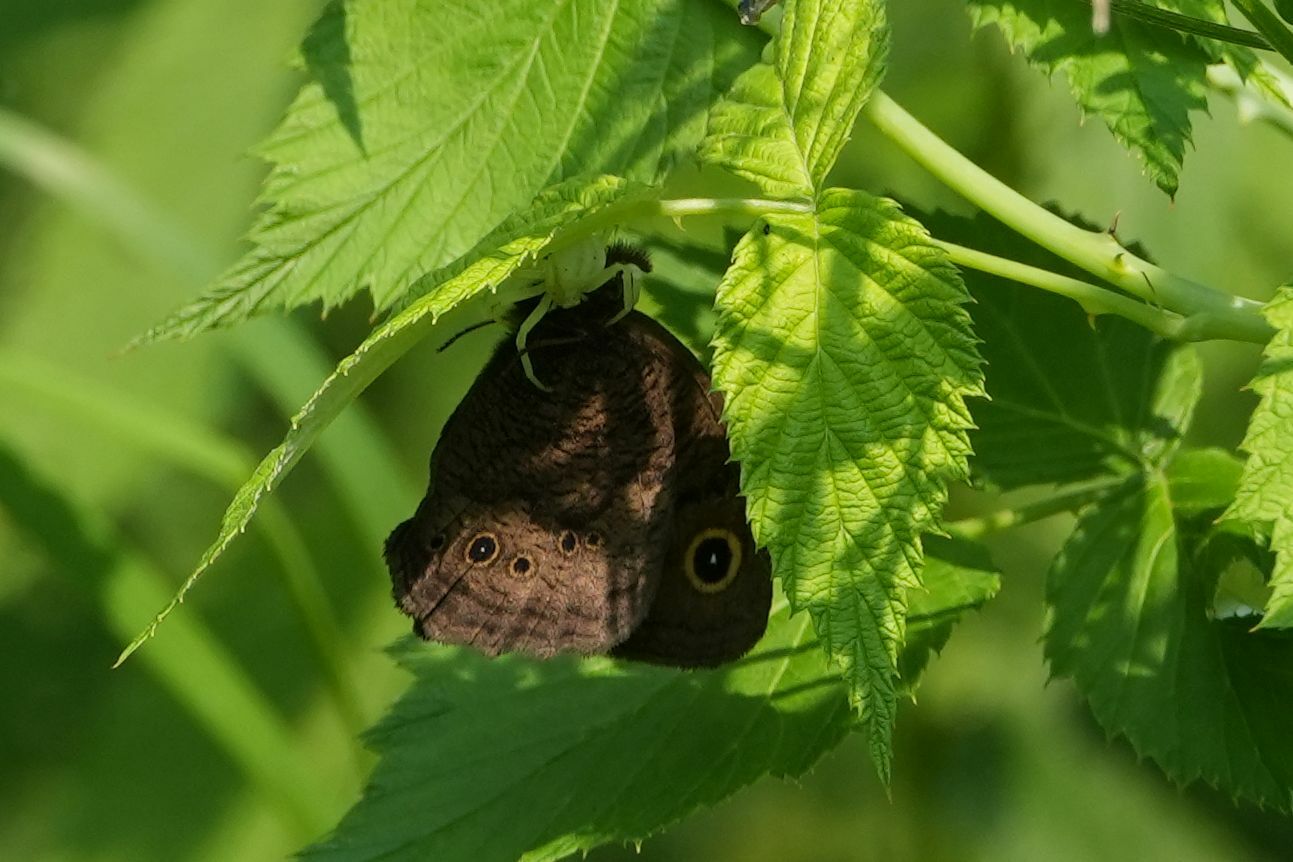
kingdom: Animalia
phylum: Arthropoda
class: Insecta
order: Lepidoptera
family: Nymphalidae
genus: Cercyonis
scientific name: Cercyonis pegala
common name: Common wood-nymph
